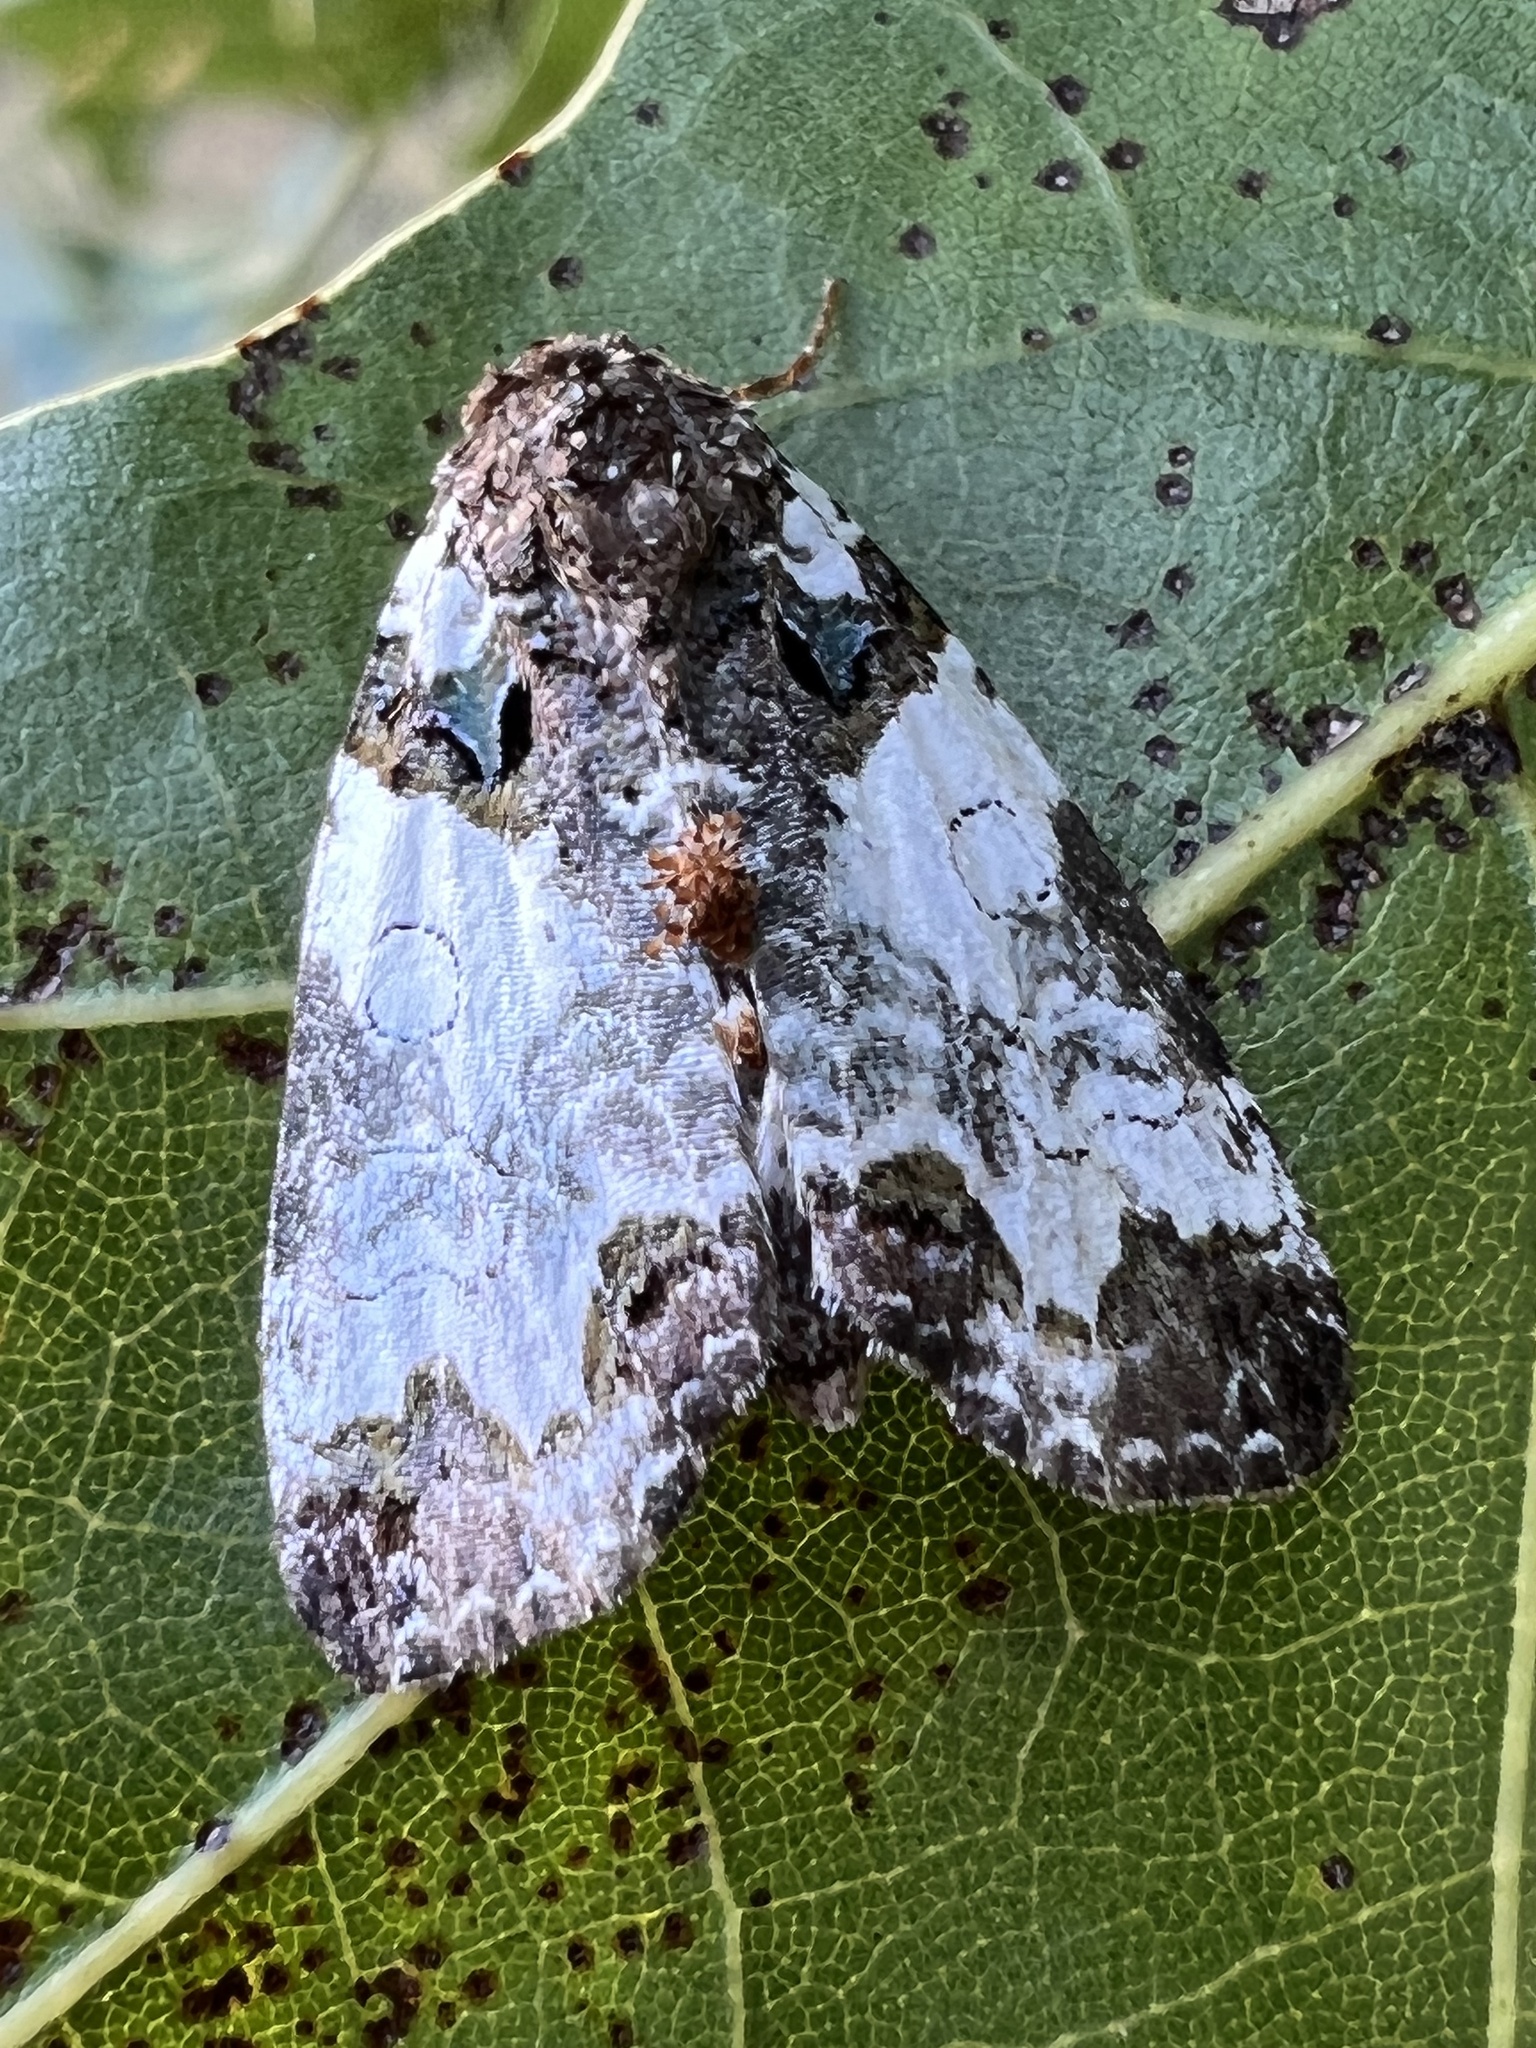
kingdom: Animalia
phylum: Arthropoda
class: Insecta
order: Lepidoptera
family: Noctuidae
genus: Cerma
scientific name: Cerma cerintha
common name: Tufted bird-dropping moth
